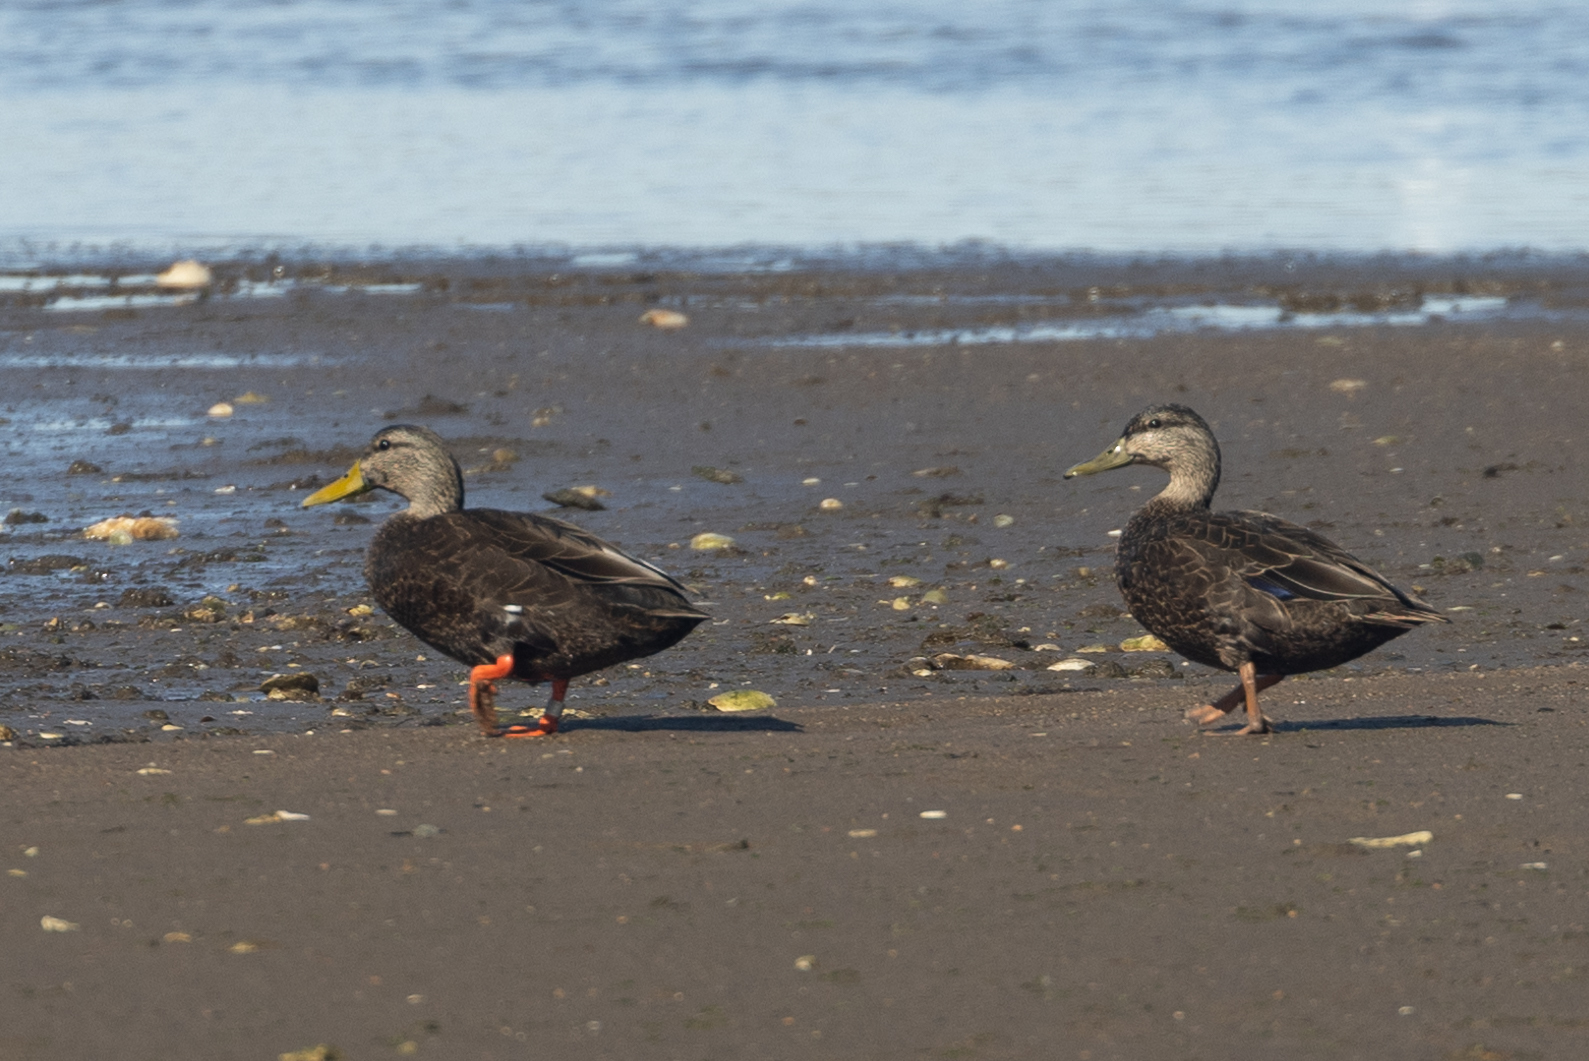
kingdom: Animalia
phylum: Chordata
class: Aves
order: Anseriformes
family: Anatidae
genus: Anas
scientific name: Anas rubripes
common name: American black duck
